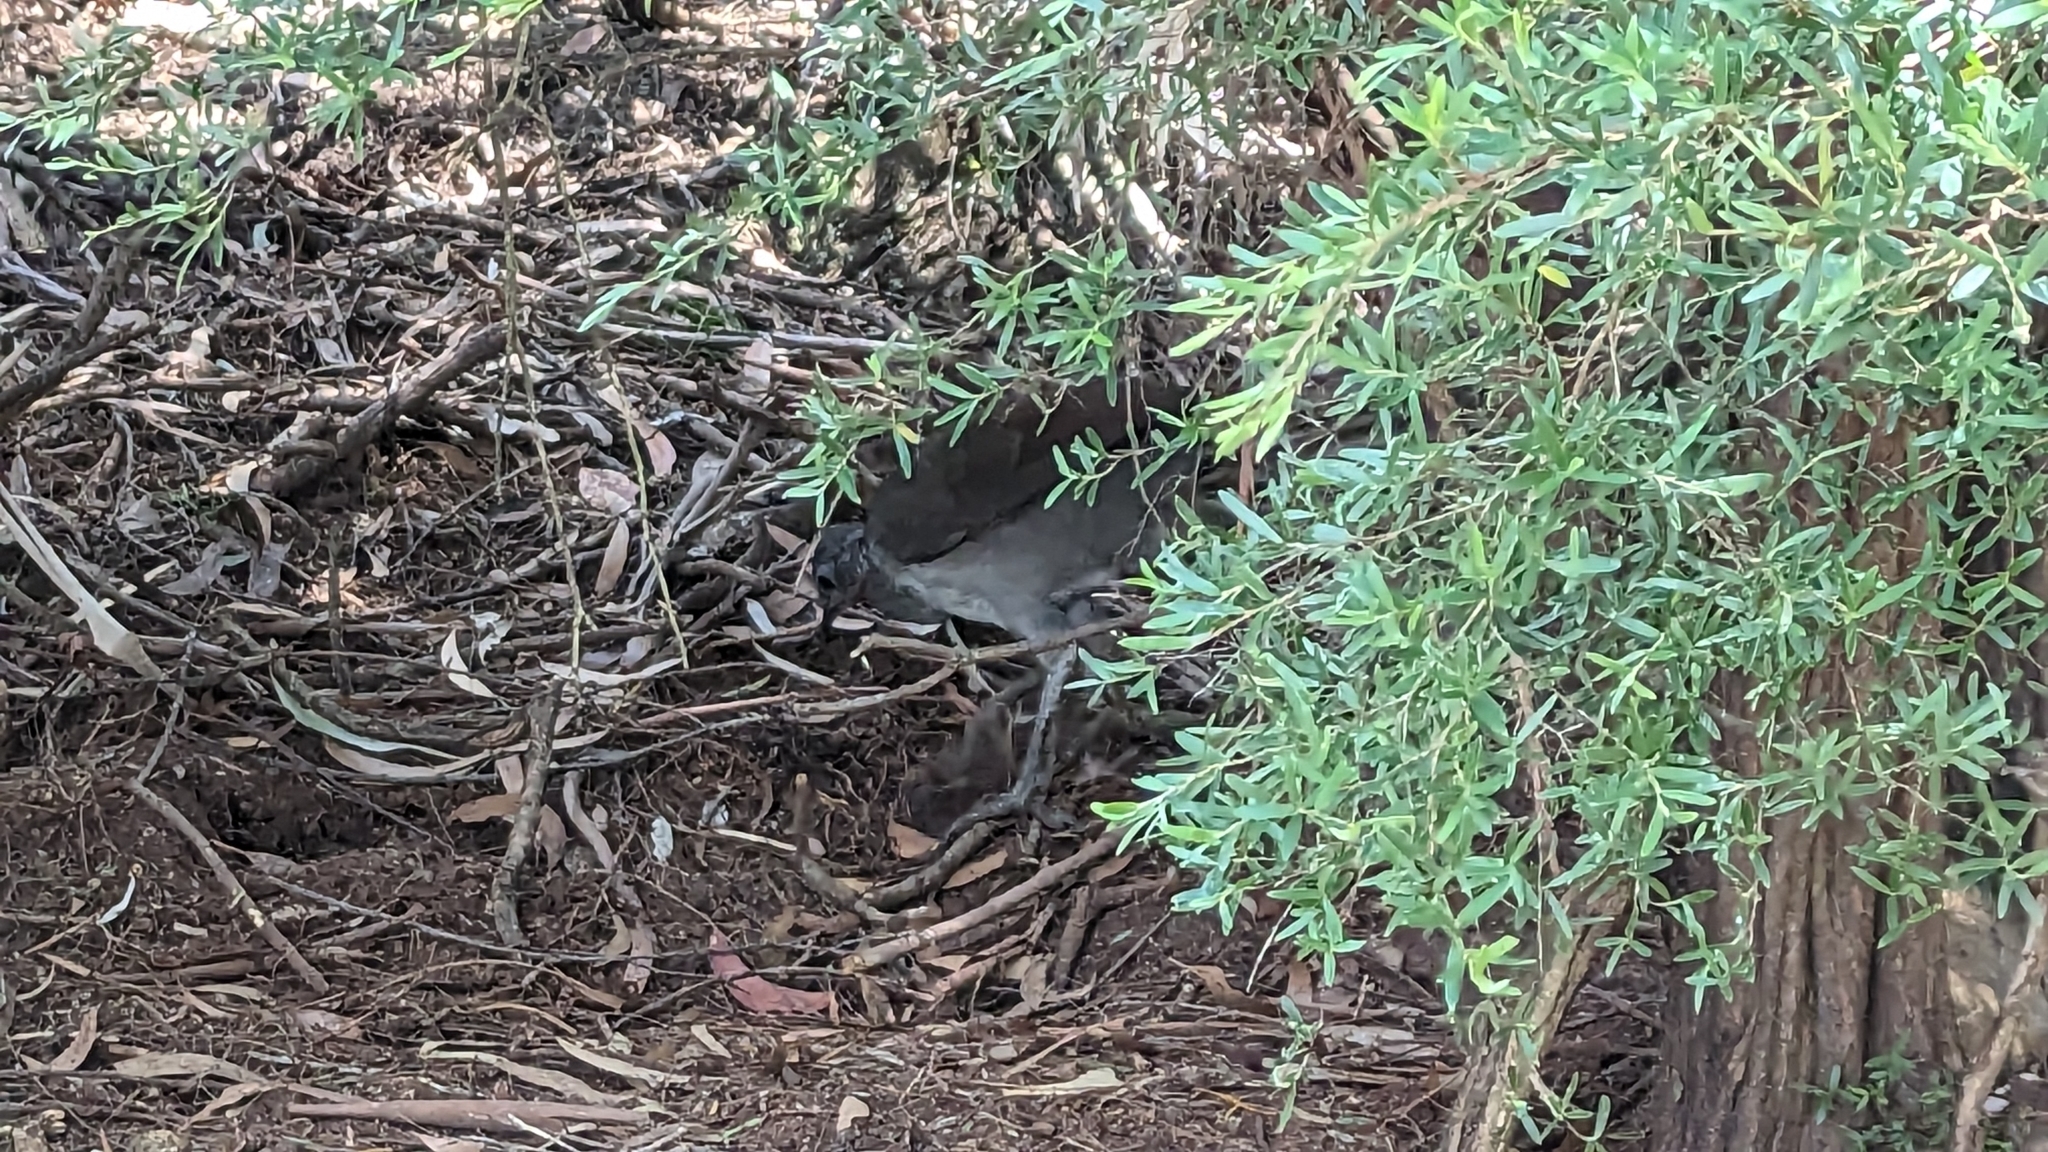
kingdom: Animalia
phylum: Chordata
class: Aves
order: Passeriformes
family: Menuridae
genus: Menura
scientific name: Menura novaehollandiae
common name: Superb lyrebird
